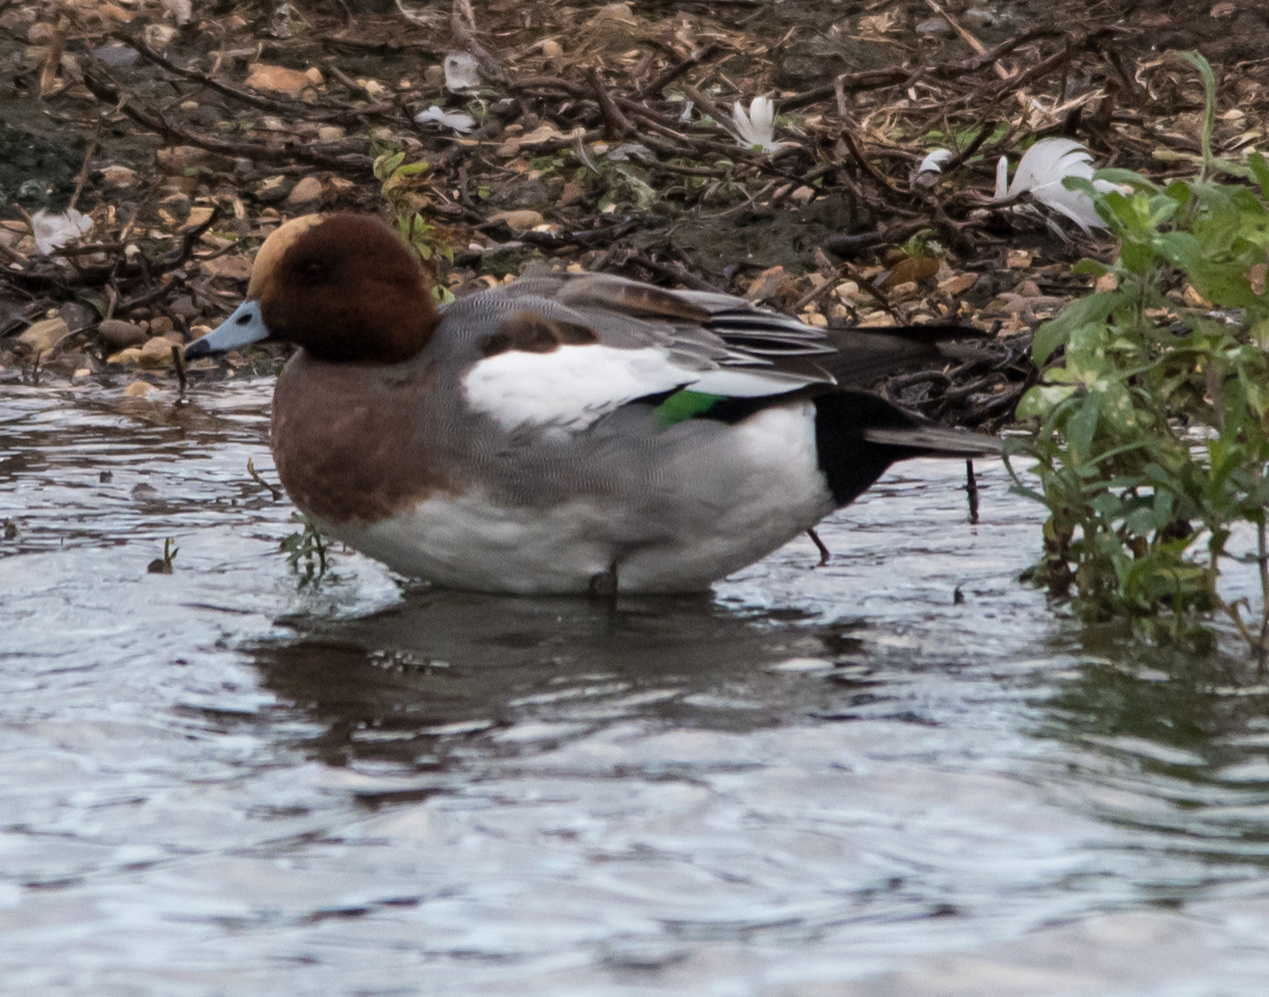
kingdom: Animalia
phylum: Chordata
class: Aves
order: Anseriformes
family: Anatidae
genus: Mareca
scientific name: Mareca penelope
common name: Eurasian wigeon
